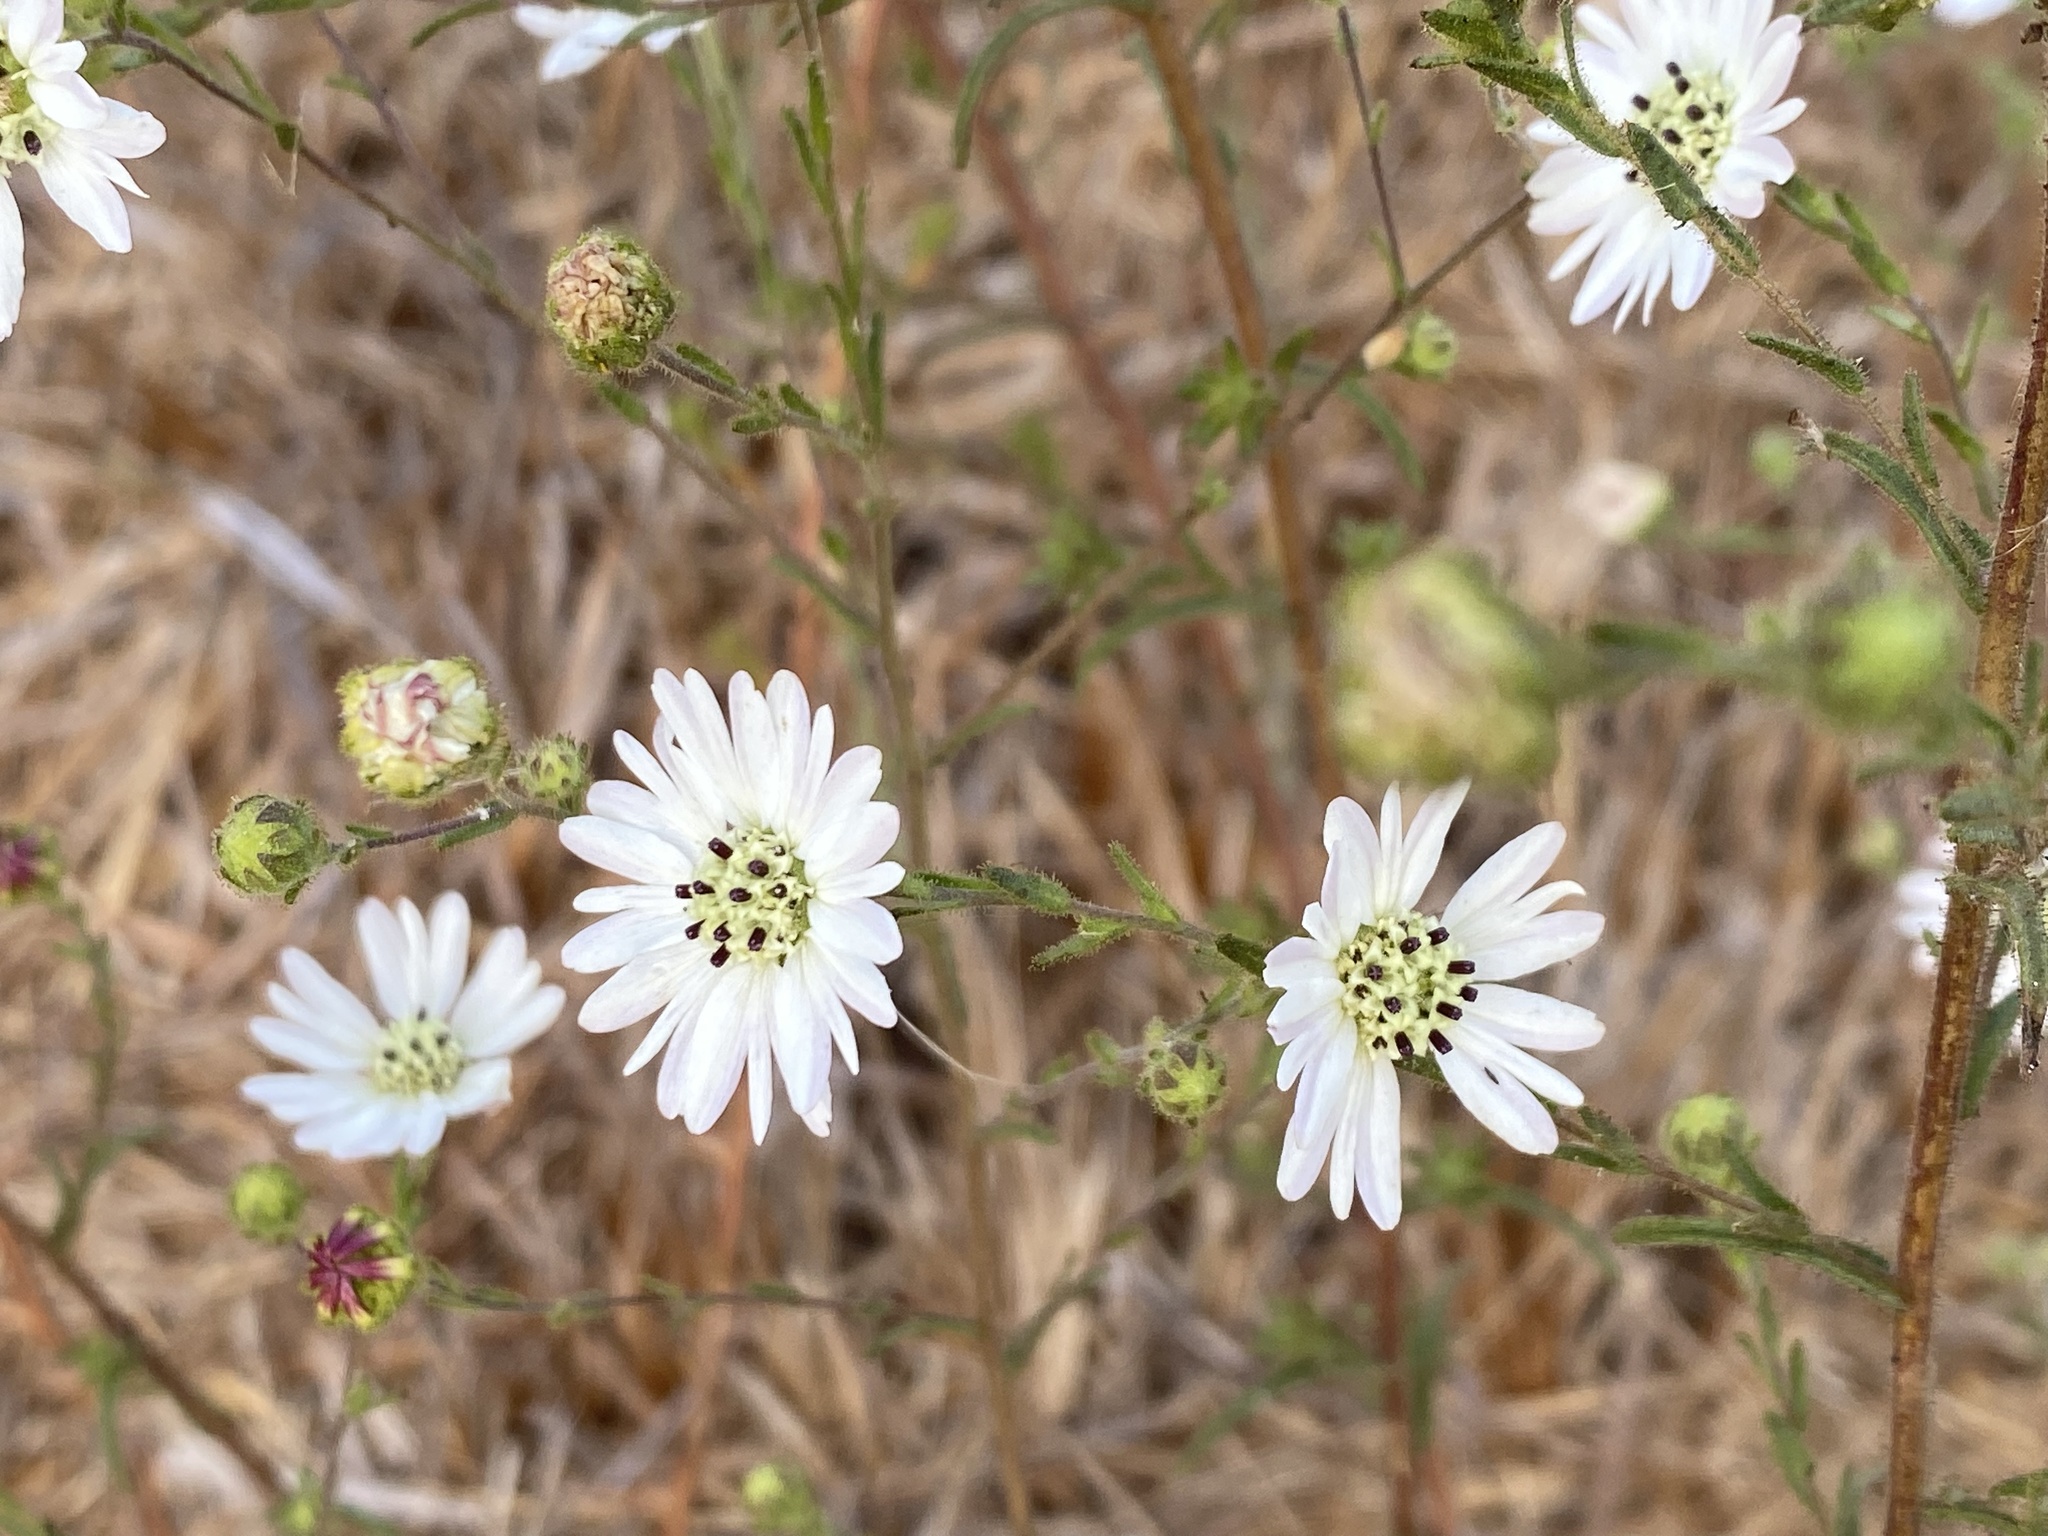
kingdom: Plantae
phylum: Tracheophyta
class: Magnoliopsida
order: Asterales
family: Asteraceae
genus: Hemizonia
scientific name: Hemizonia congesta
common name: Hayfield tarweed
